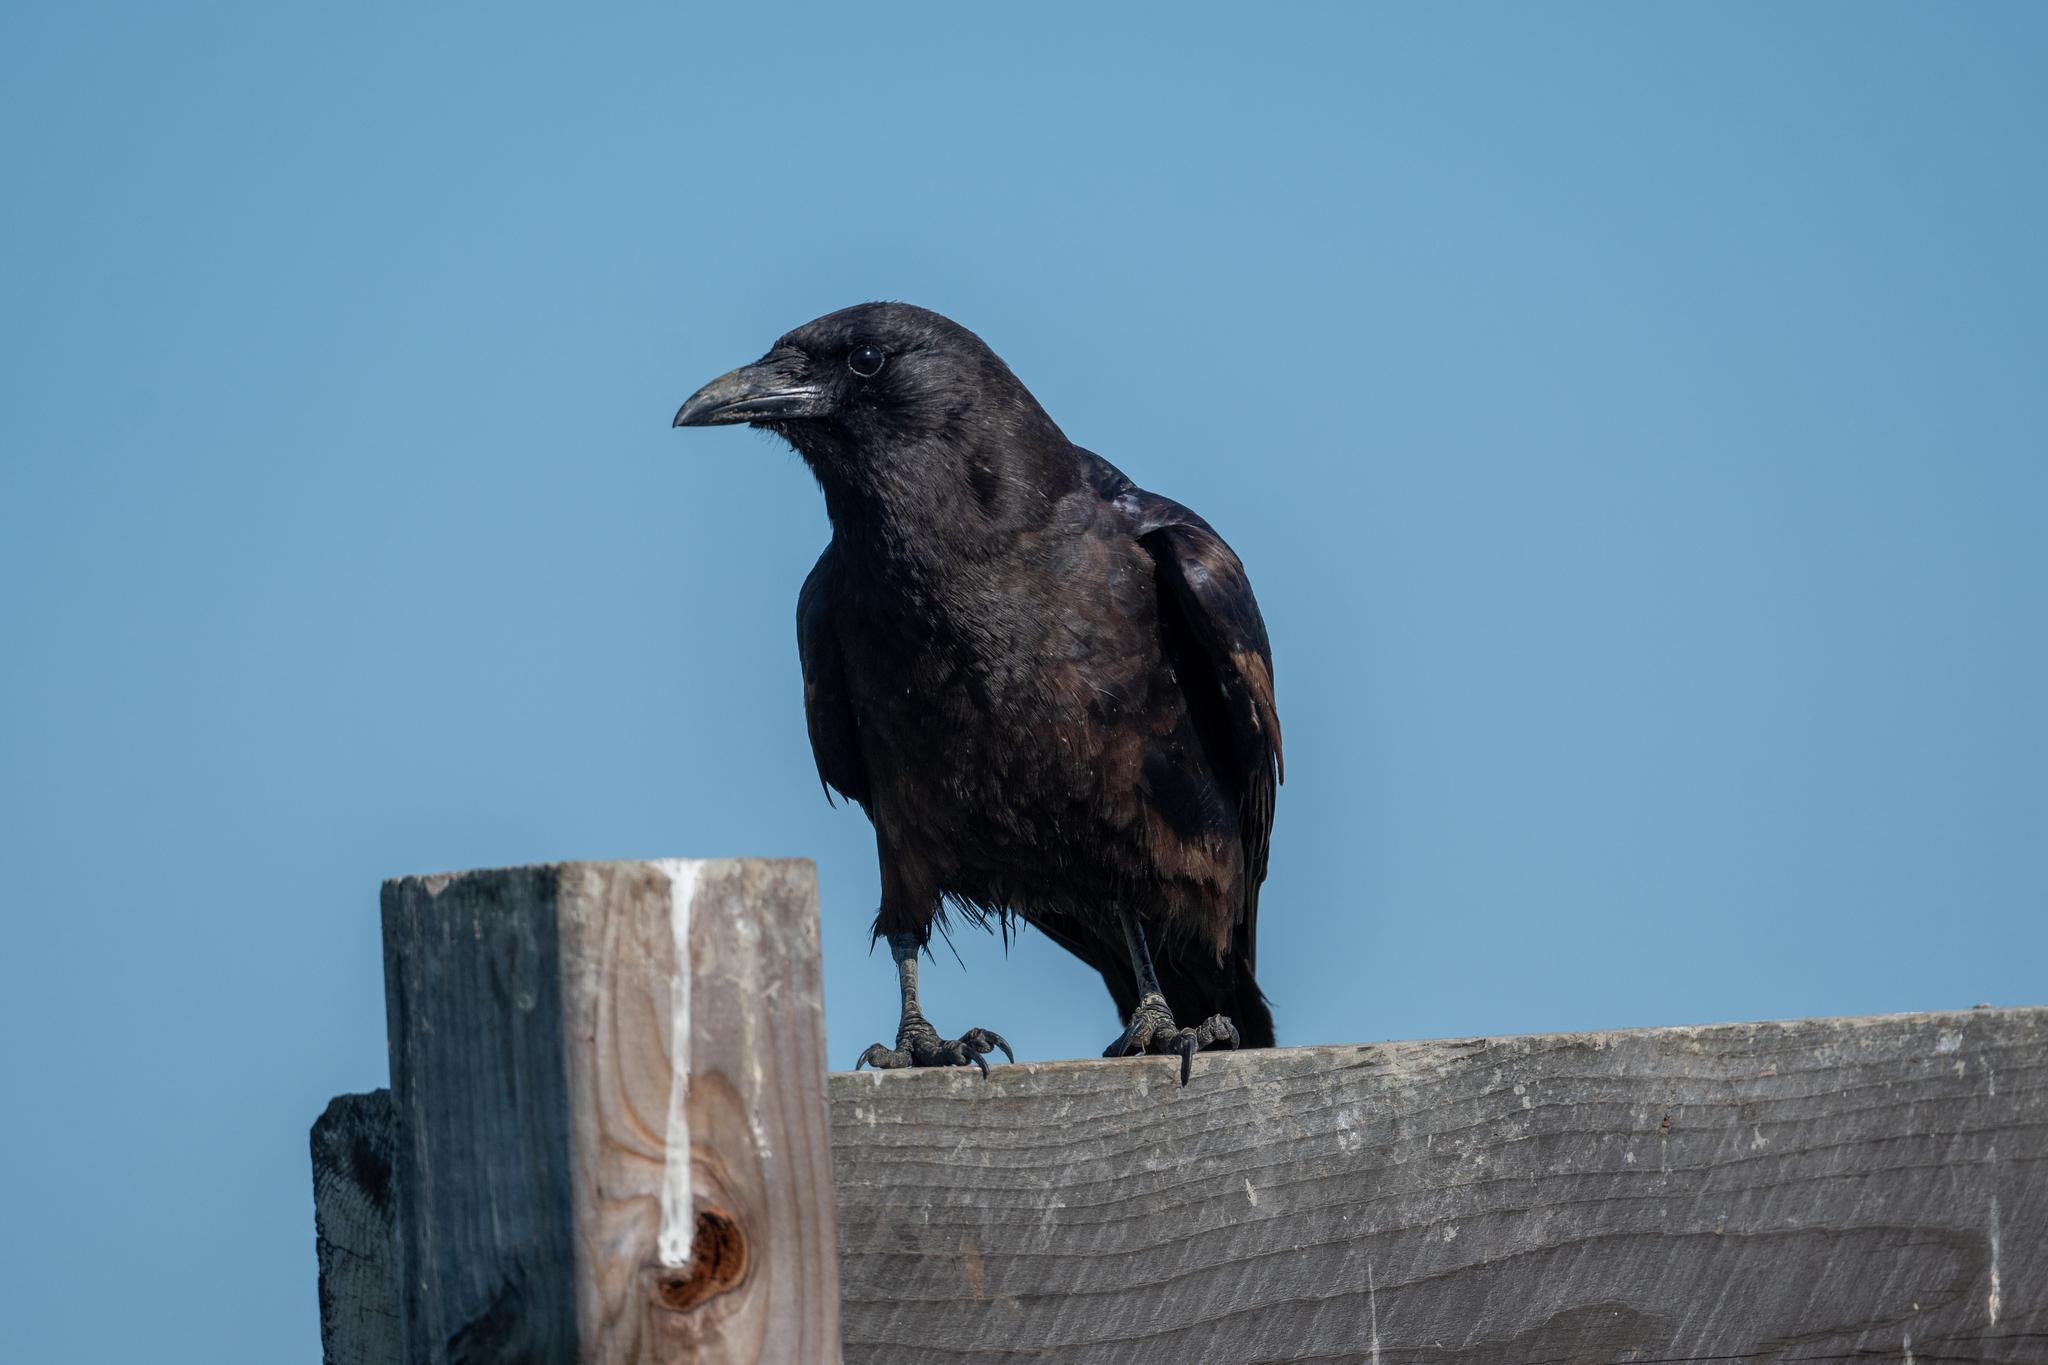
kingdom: Animalia
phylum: Chordata
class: Aves
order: Passeriformes
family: Corvidae
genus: Corvus
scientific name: Corvus corax
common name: Common raven
